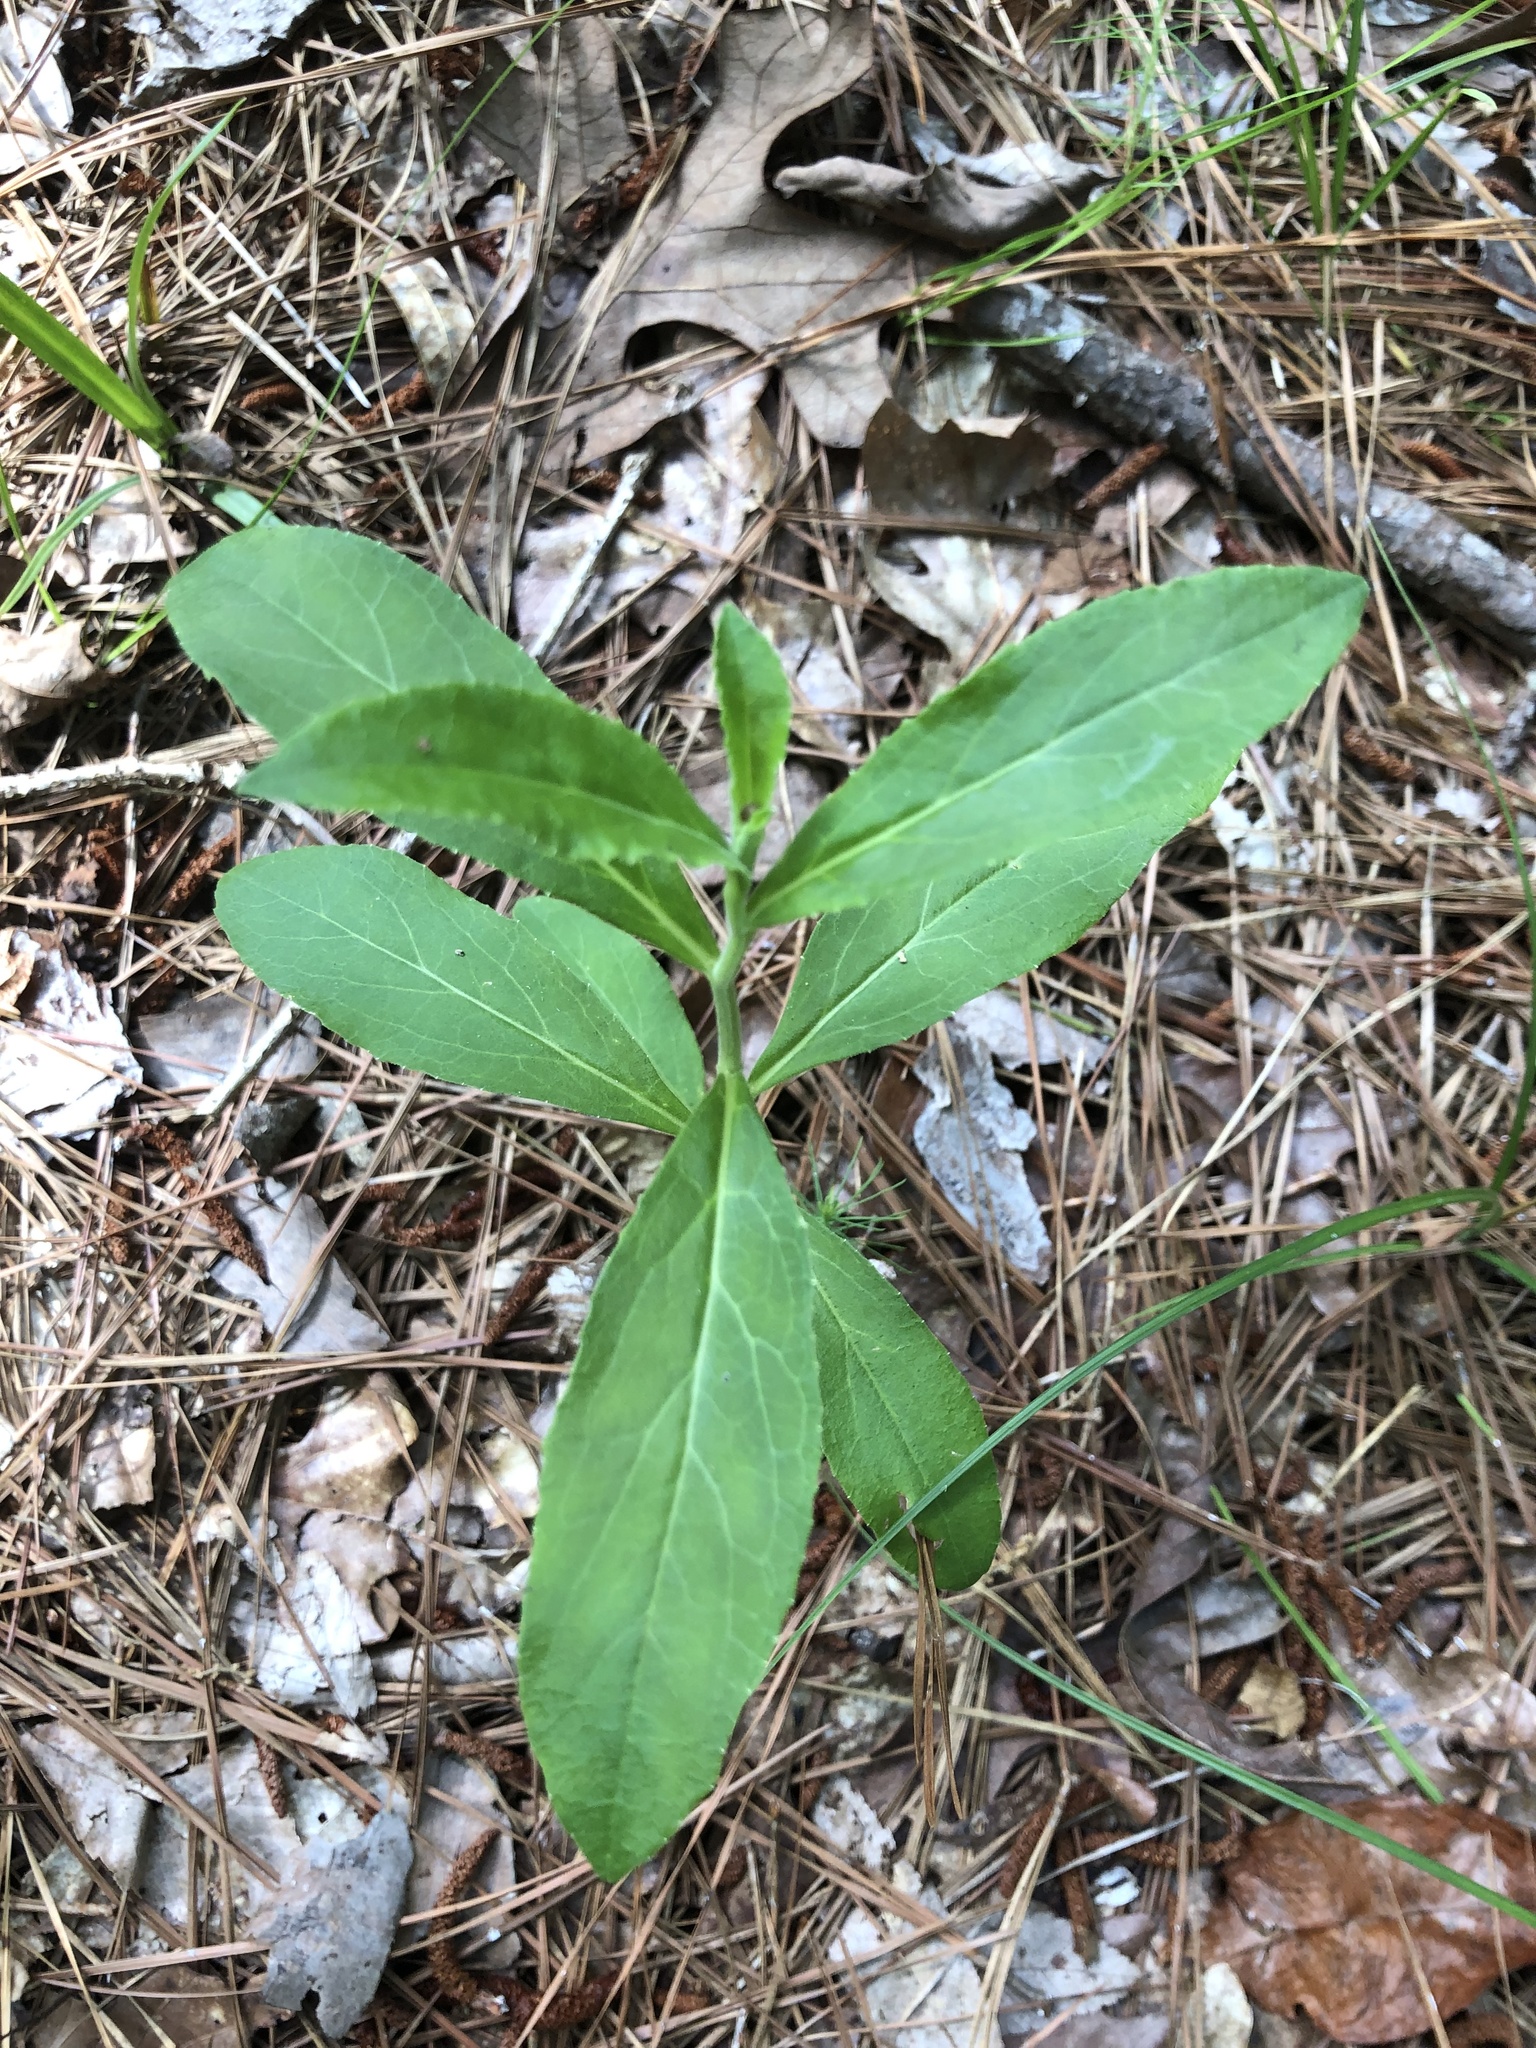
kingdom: Plantae
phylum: Tracheophyta
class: Magnoliopsida
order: Asterales
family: Campanulaceae
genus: Lobelia
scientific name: Lobelia puberula
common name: Purple dewdrop
